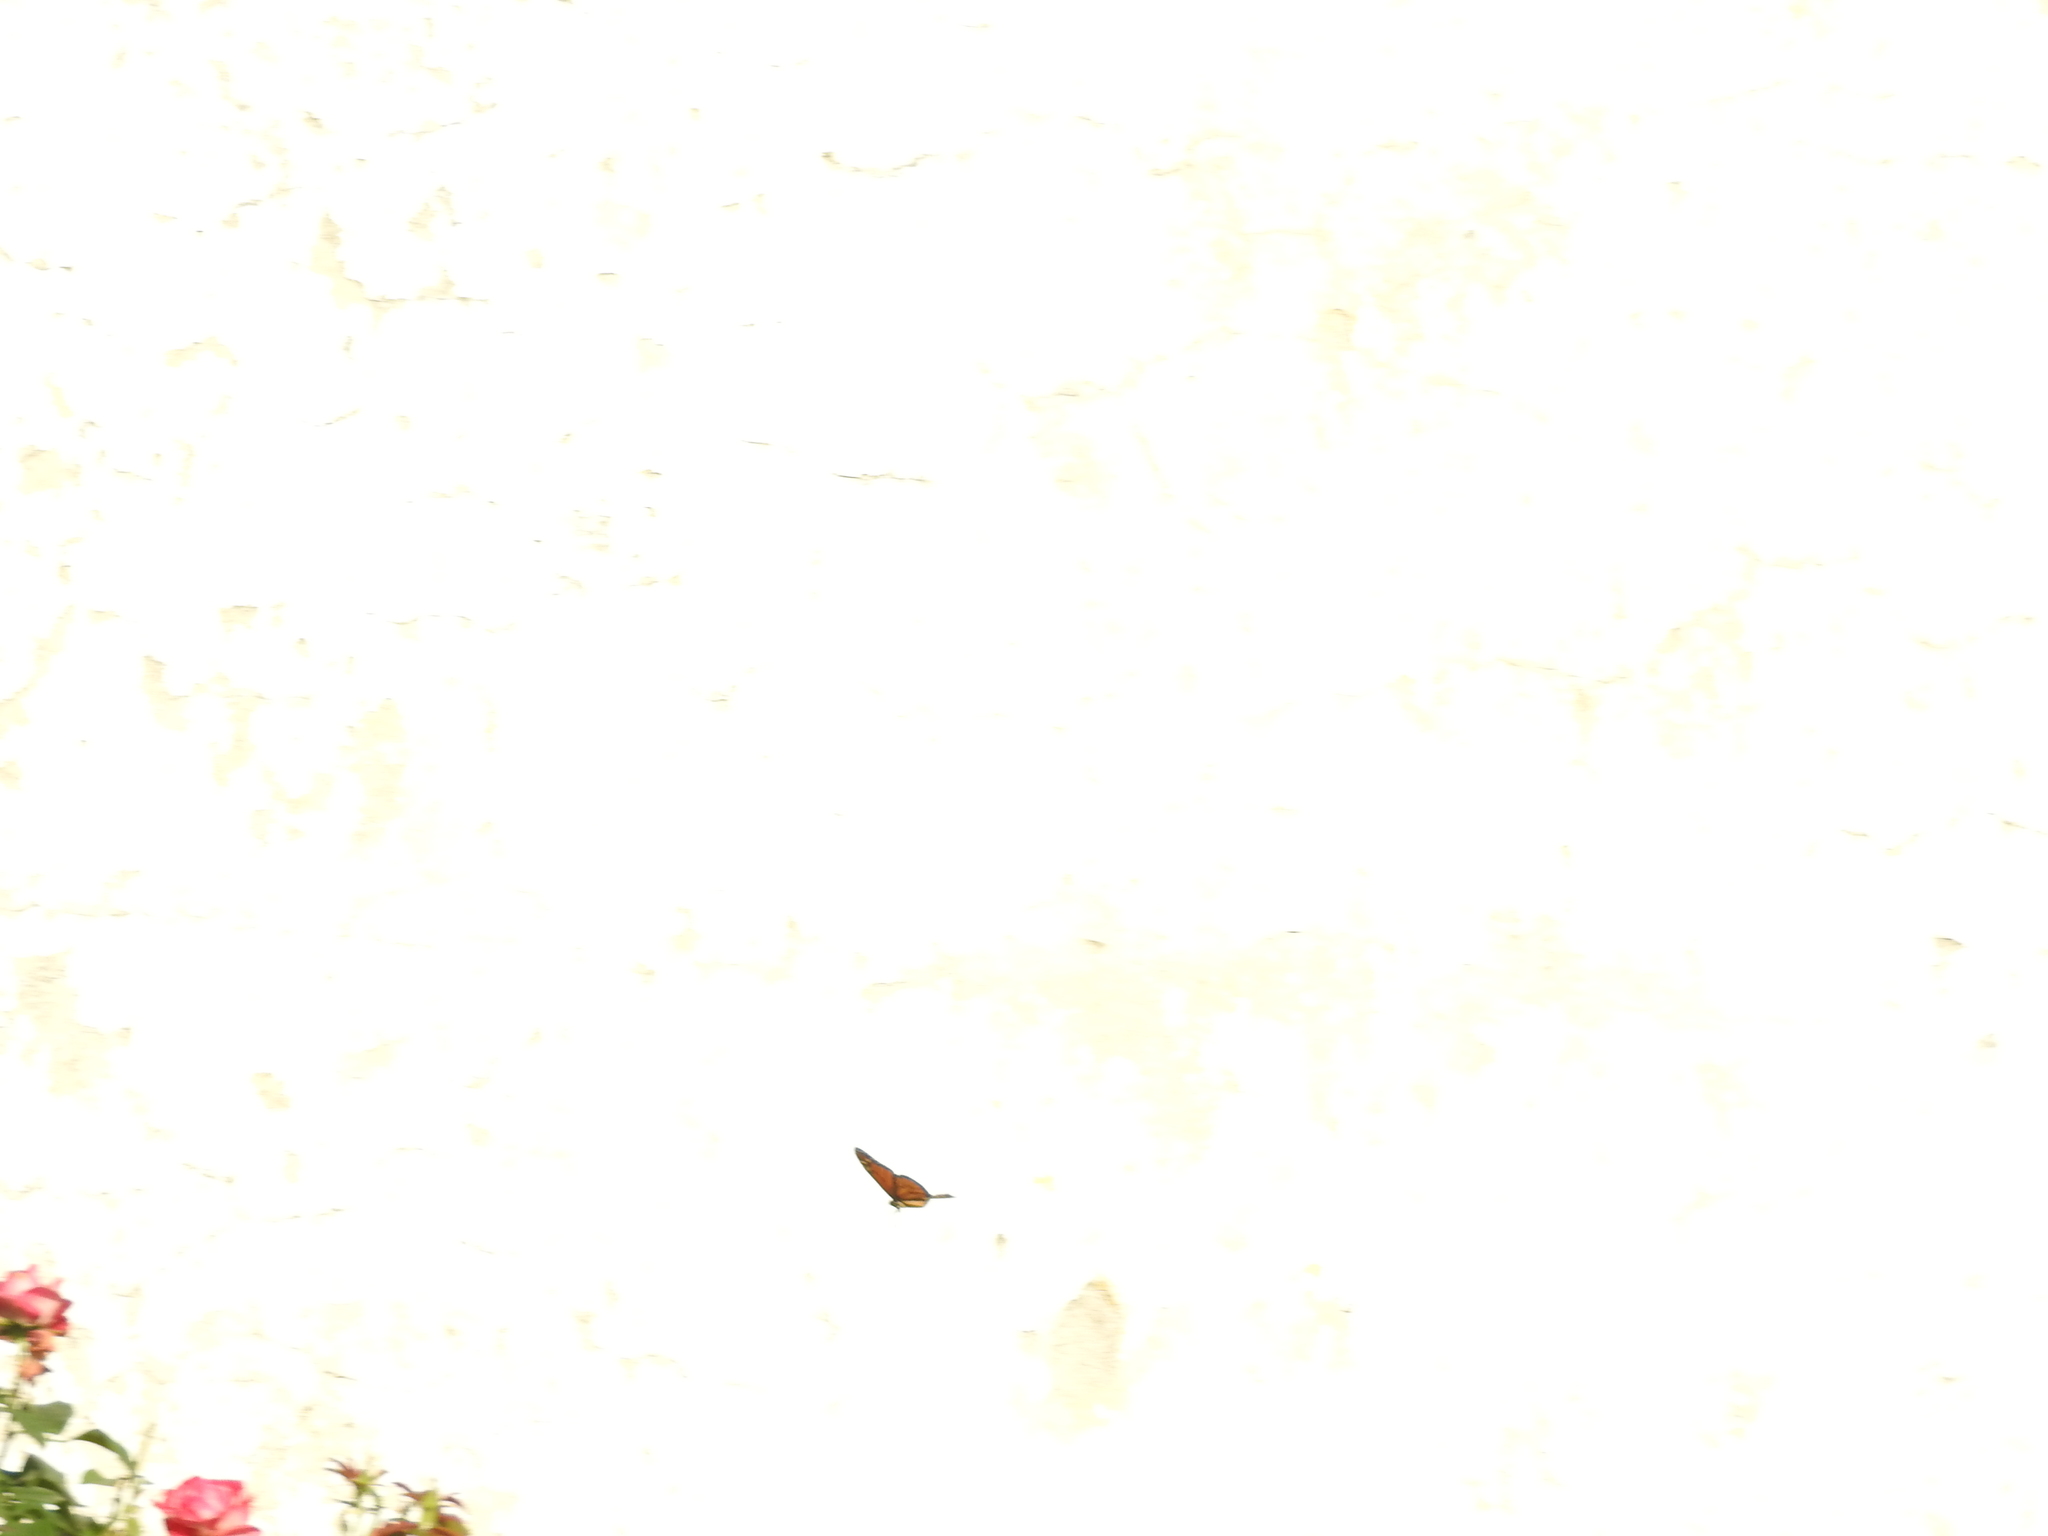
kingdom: Animalia
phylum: Arthropoda
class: Insecta
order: Lepidoptera
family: Nymphalidae
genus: Danaus
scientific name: Danaus plexippus
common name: Monarch
